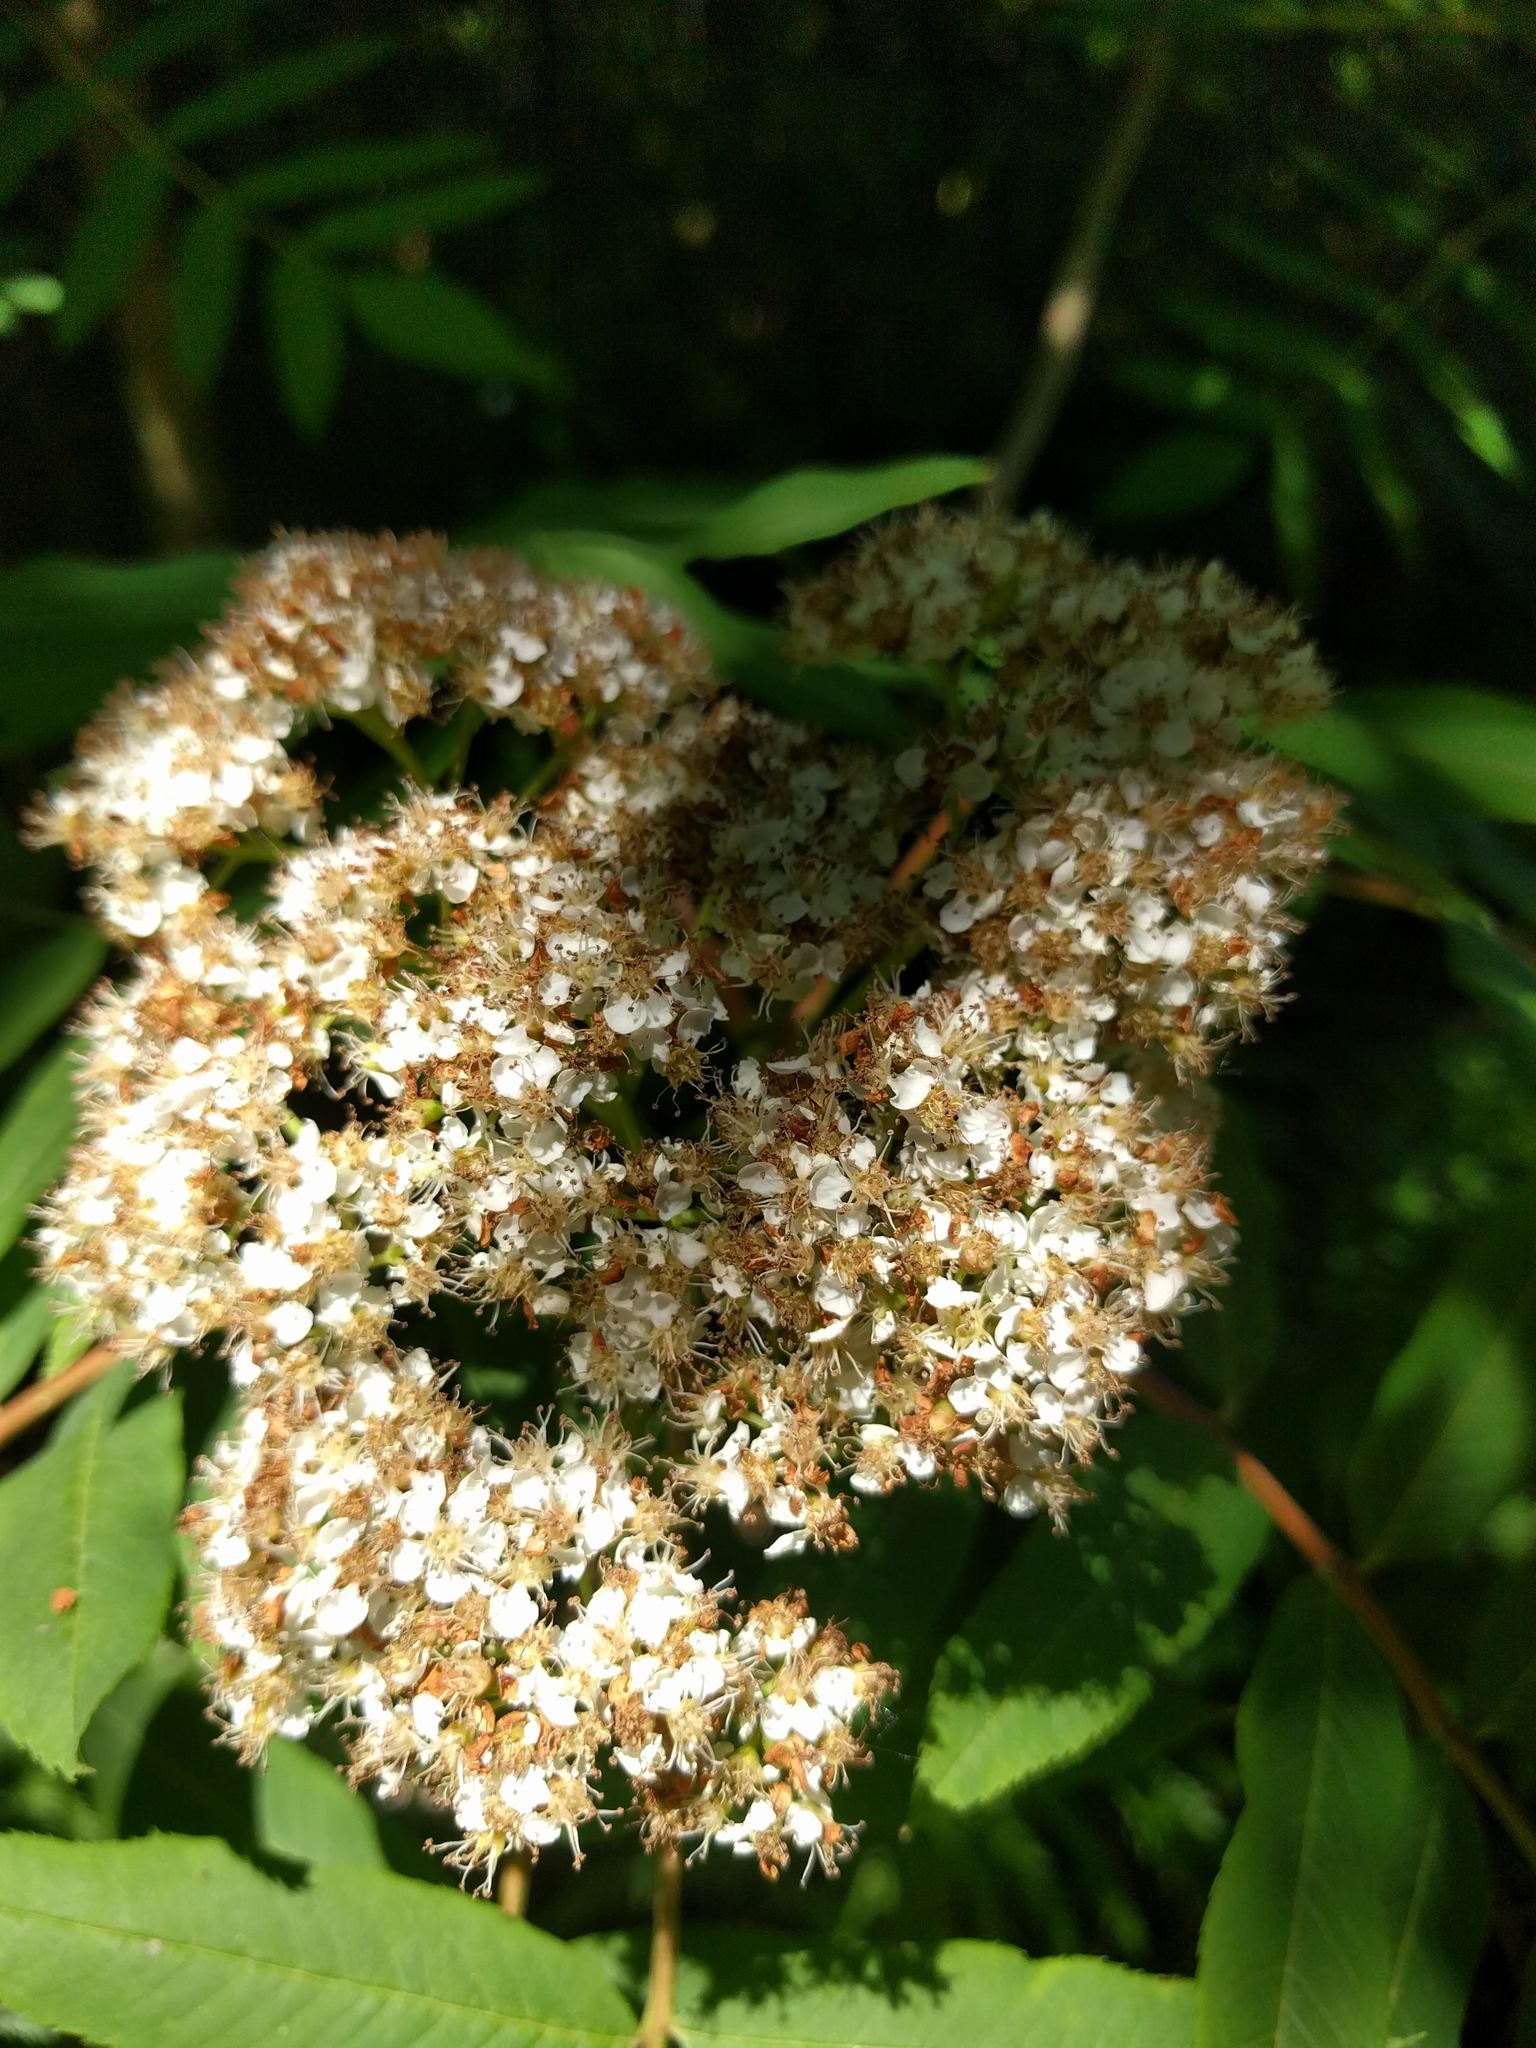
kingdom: Plantae
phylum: Tracheophyta
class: Magnoliopsida
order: Rosales
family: Rosaceae
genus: Sorbus
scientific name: Sorbus americana
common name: American mountain-ash
